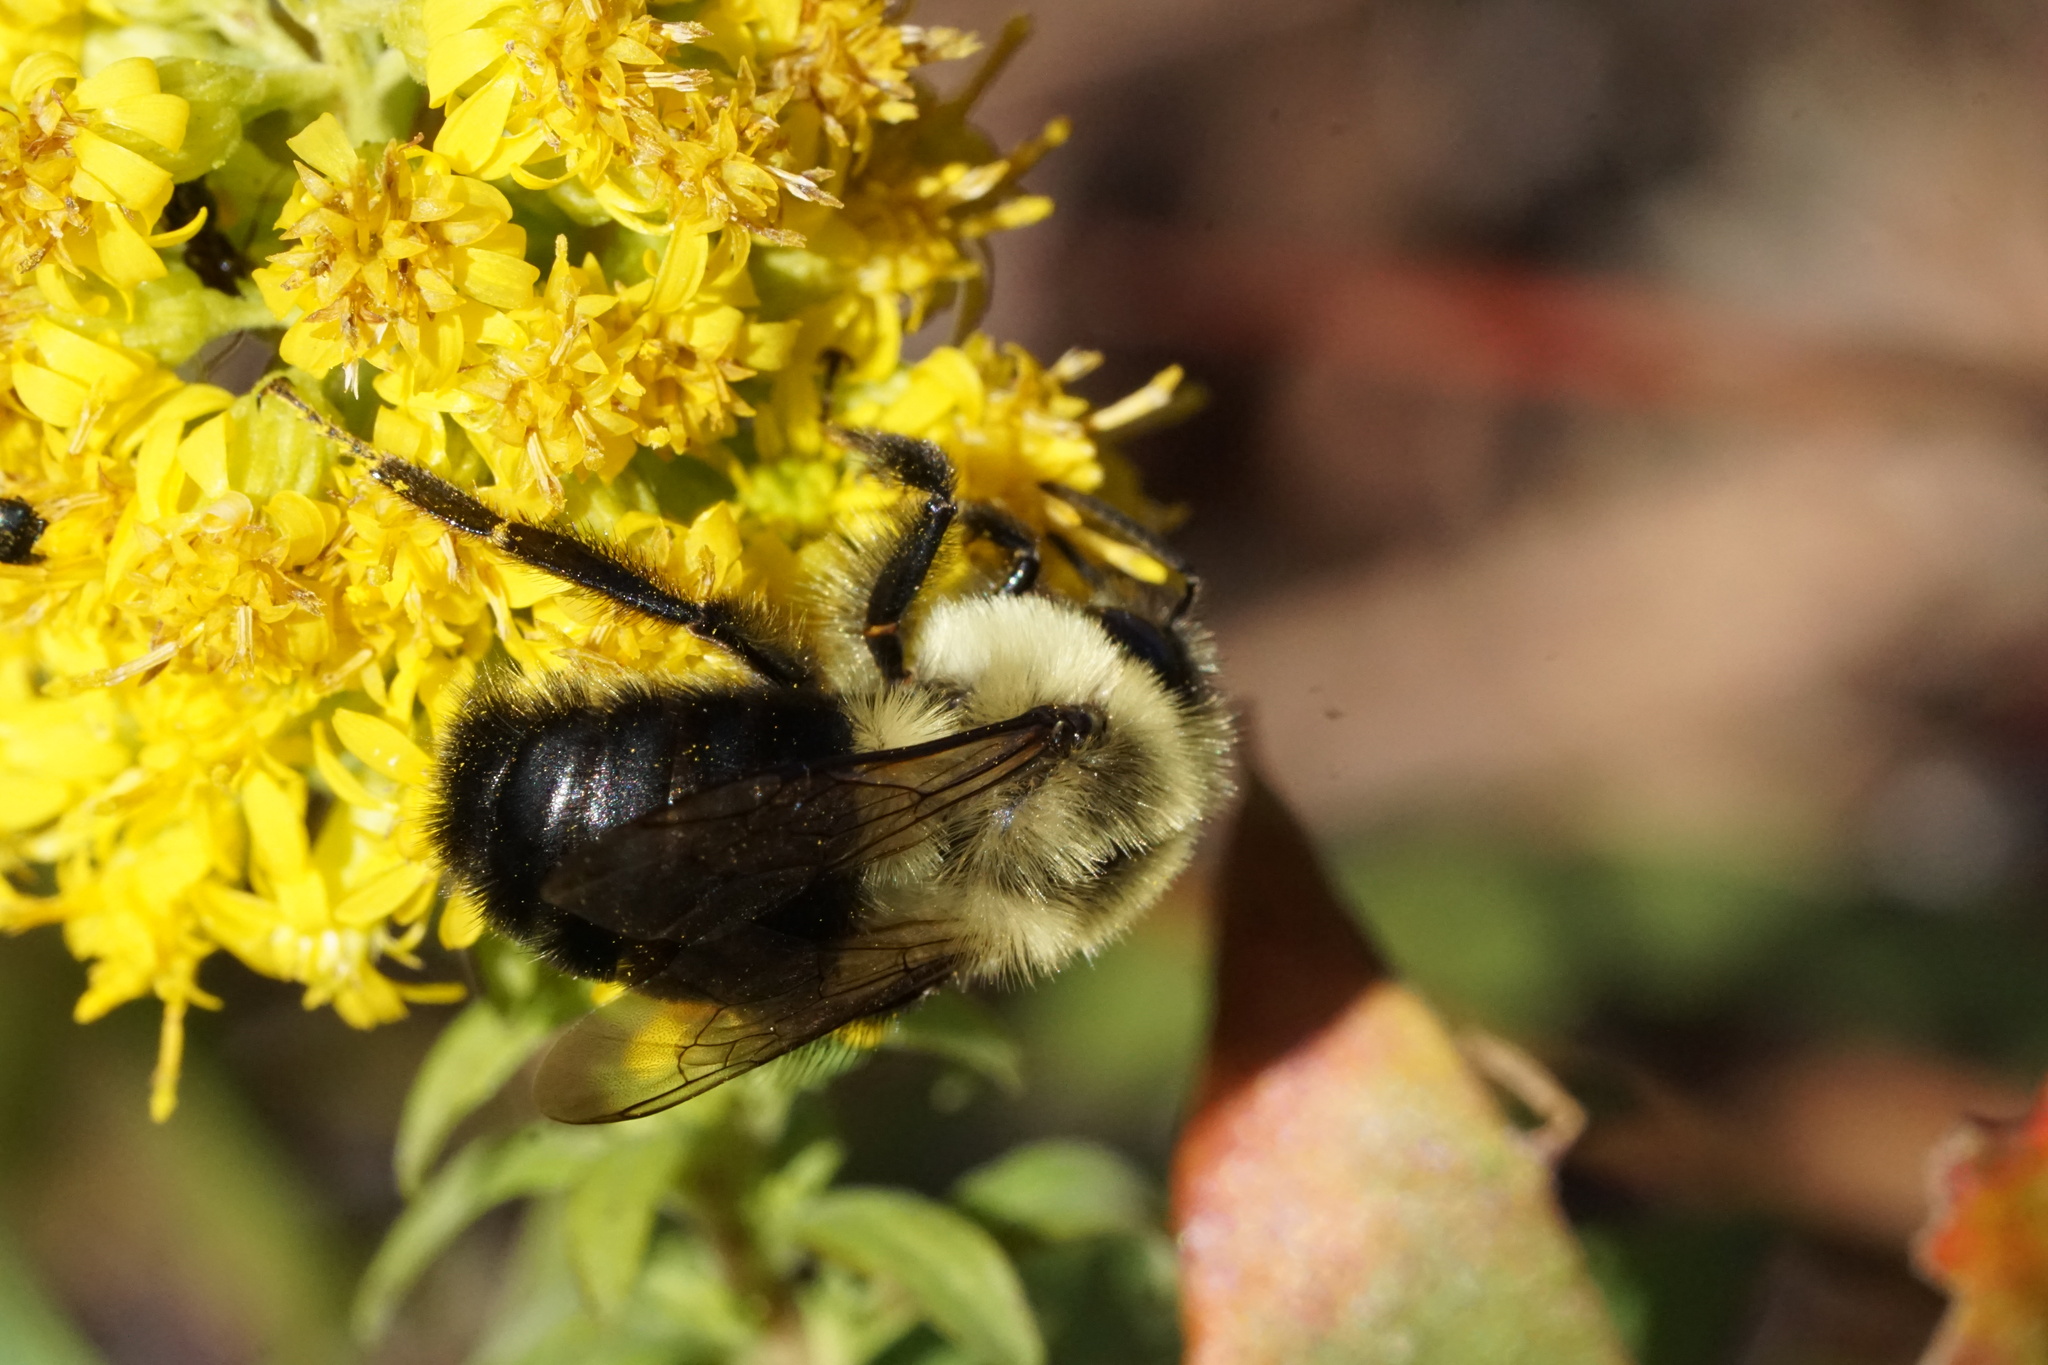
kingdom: Animalia
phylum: Arthropoda
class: Insecta
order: Hymenoptera
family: Apidae
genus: Bombus
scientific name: Bombus impatiens
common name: Common eastern bumble bee
